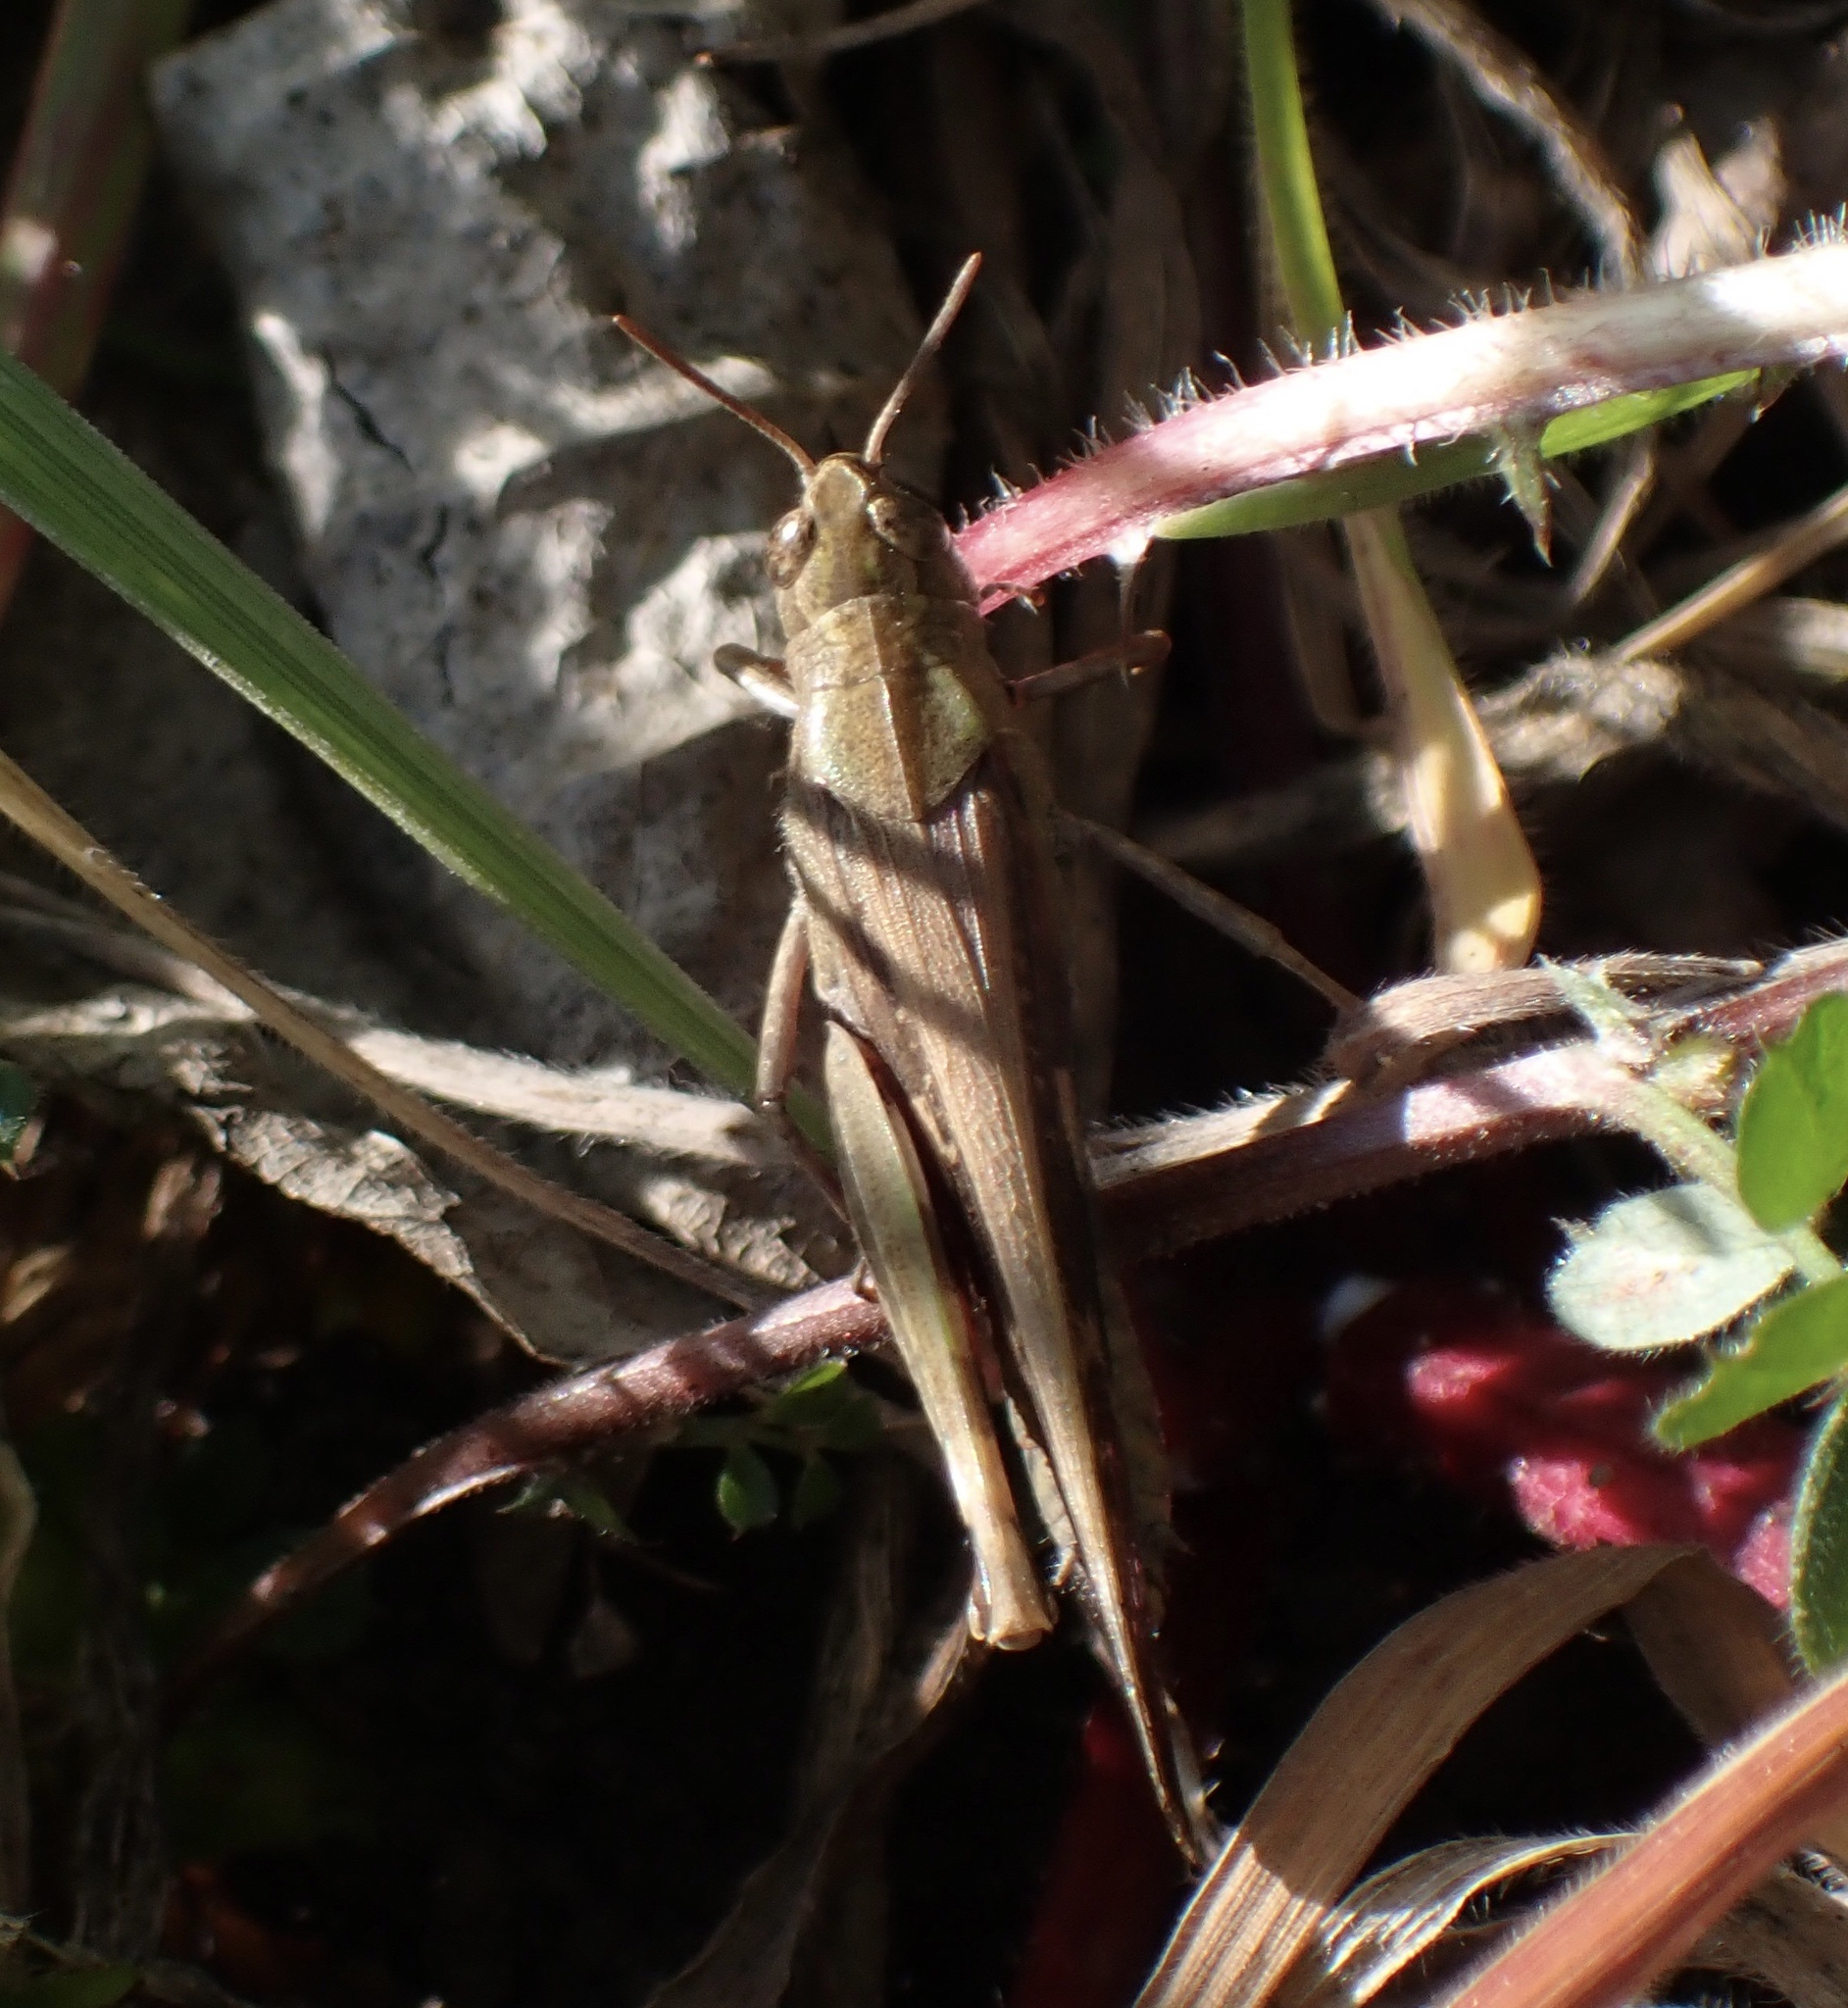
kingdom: Animalia
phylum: Arthropoda
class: Insecta
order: Orthoptera
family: Acrididae
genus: Aiolopus
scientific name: Aiolopus strepens
